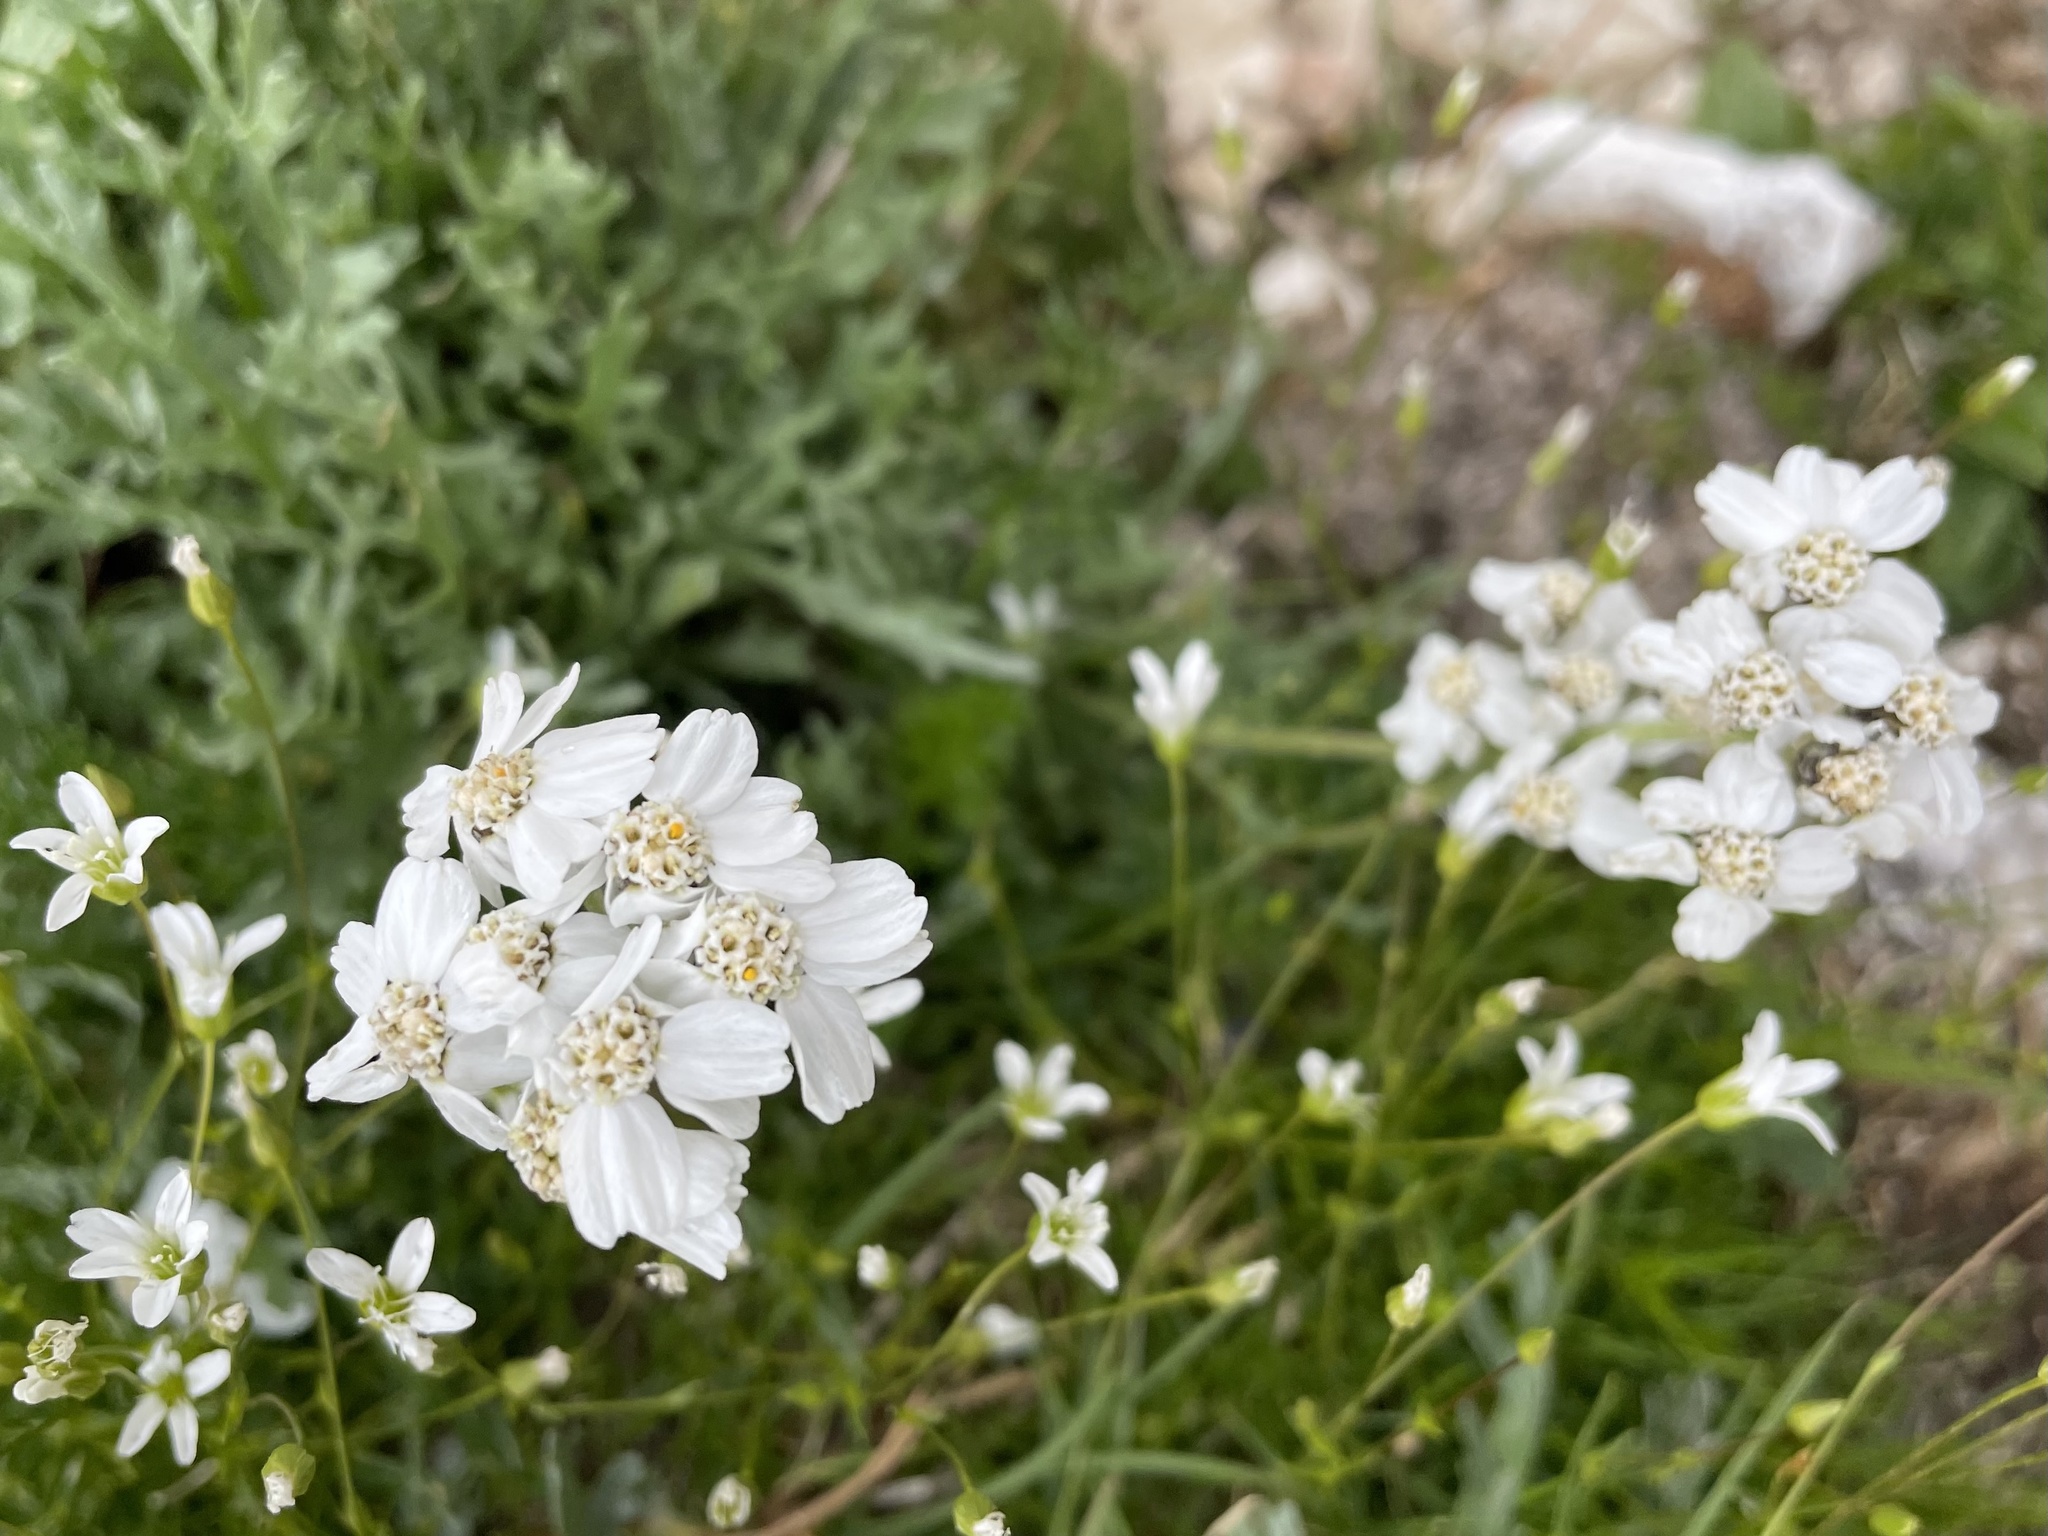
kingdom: Plantae
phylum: Tracheophyta
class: Magnoliopsida
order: Asterales
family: Asteraceae
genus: Achillea
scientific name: Achillea clavennae
